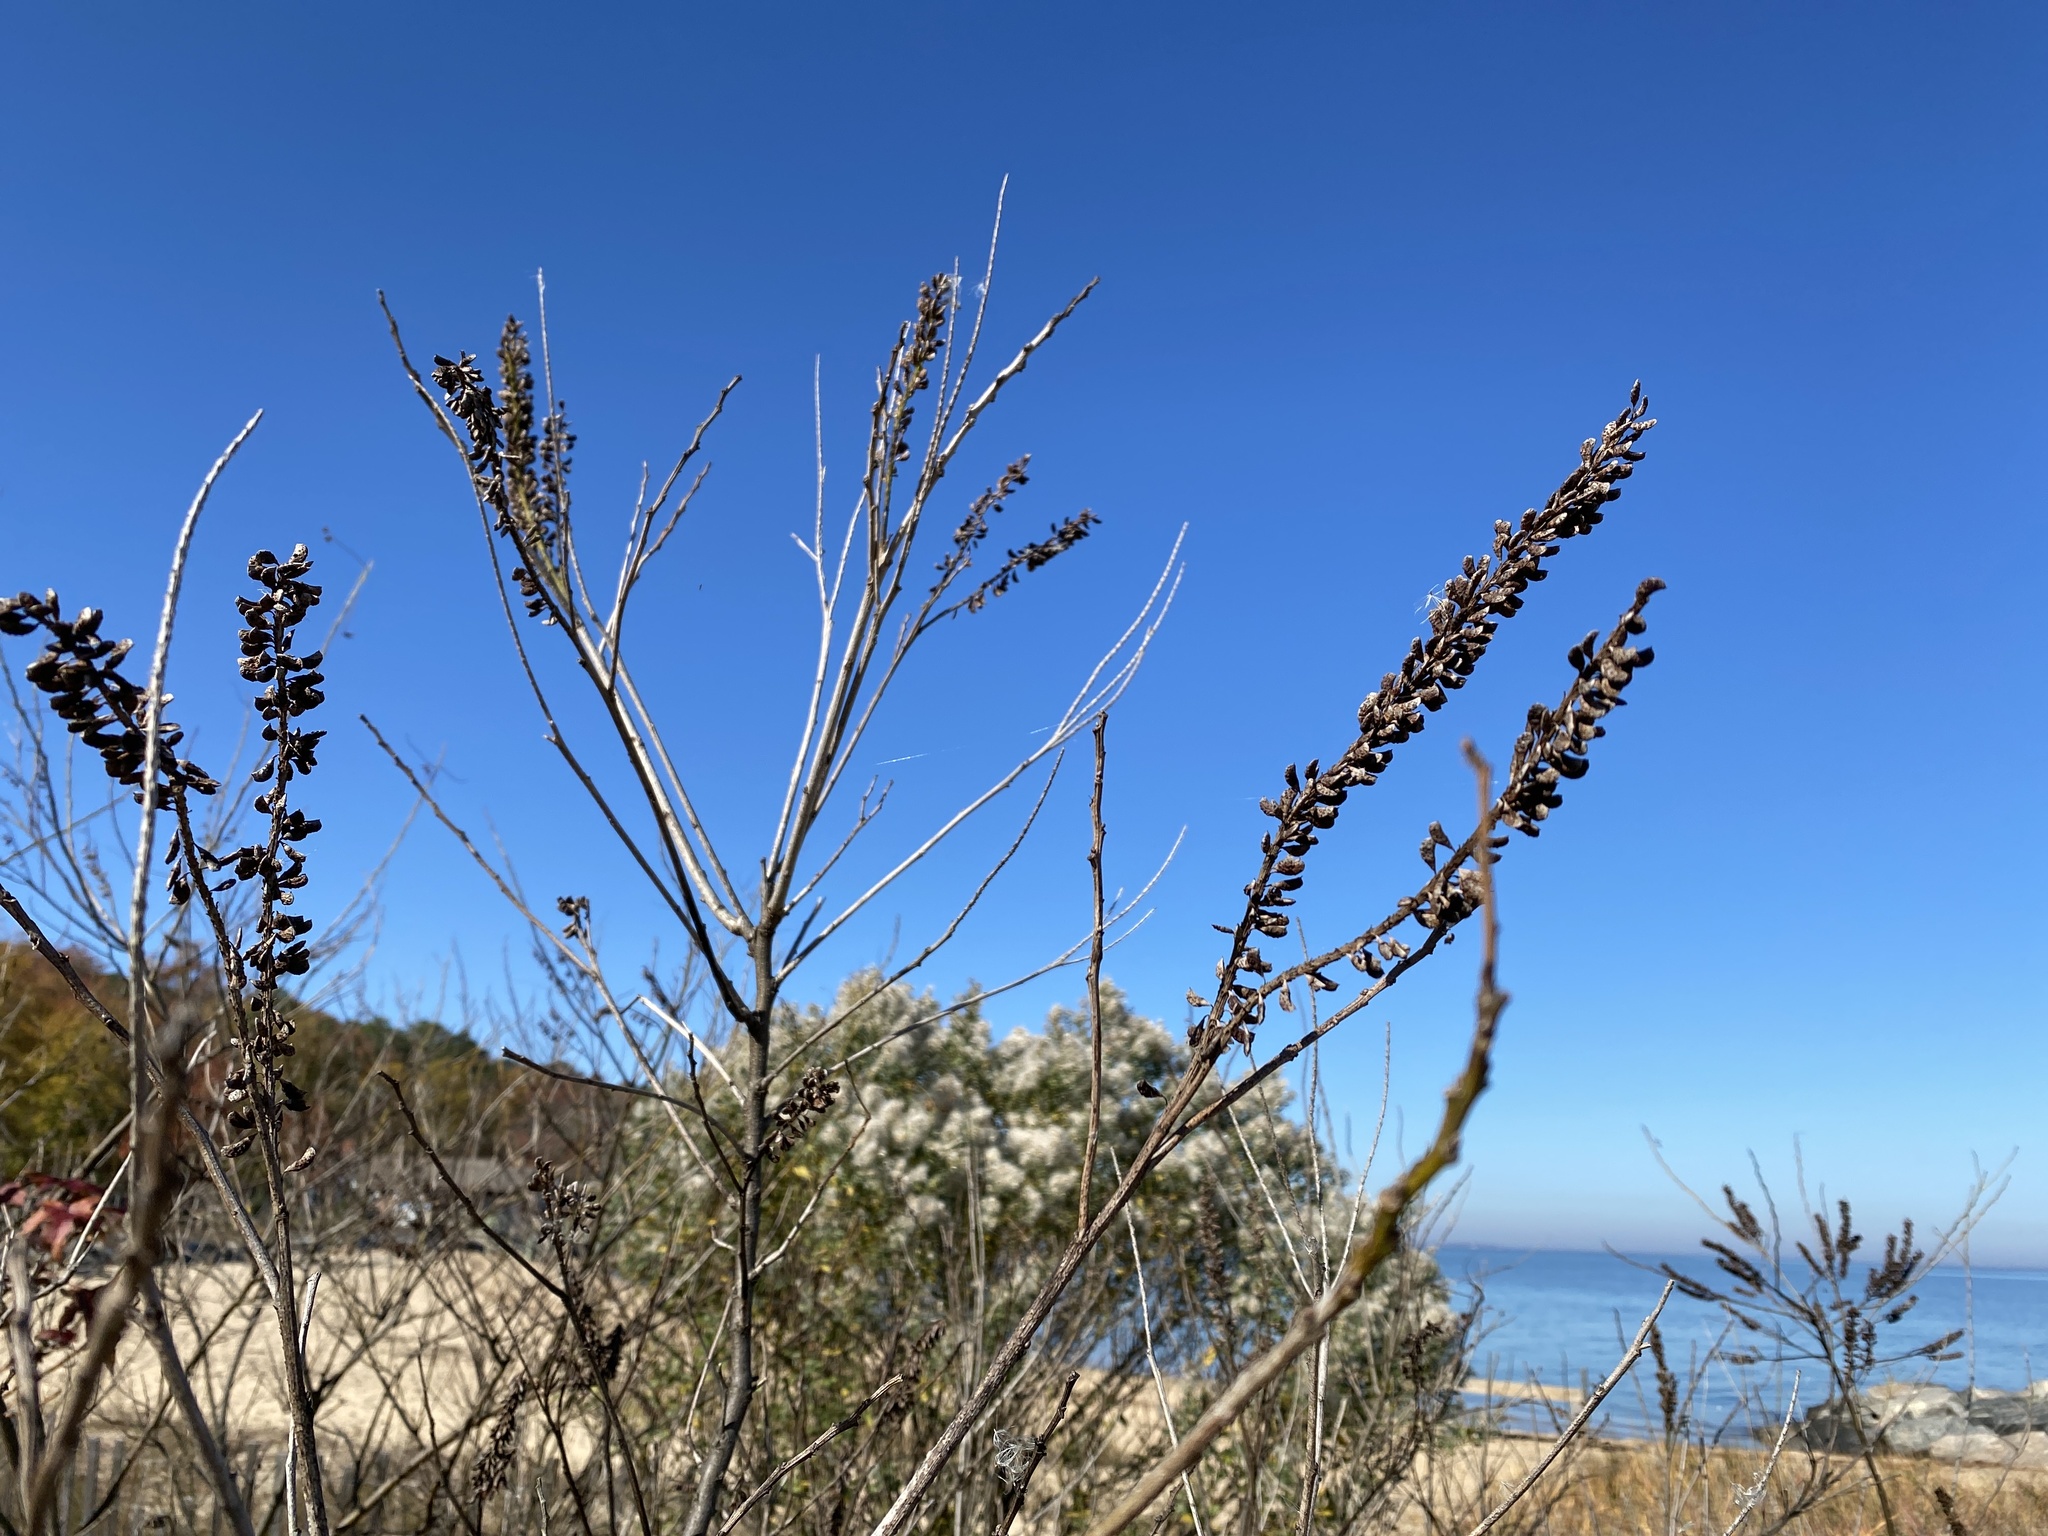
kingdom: Plantae
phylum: Tracheophyta
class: Magnoliopsida
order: Fabales
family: Fabaceae
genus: Amorpha
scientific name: Amorpha fruticosa
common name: False indigo
